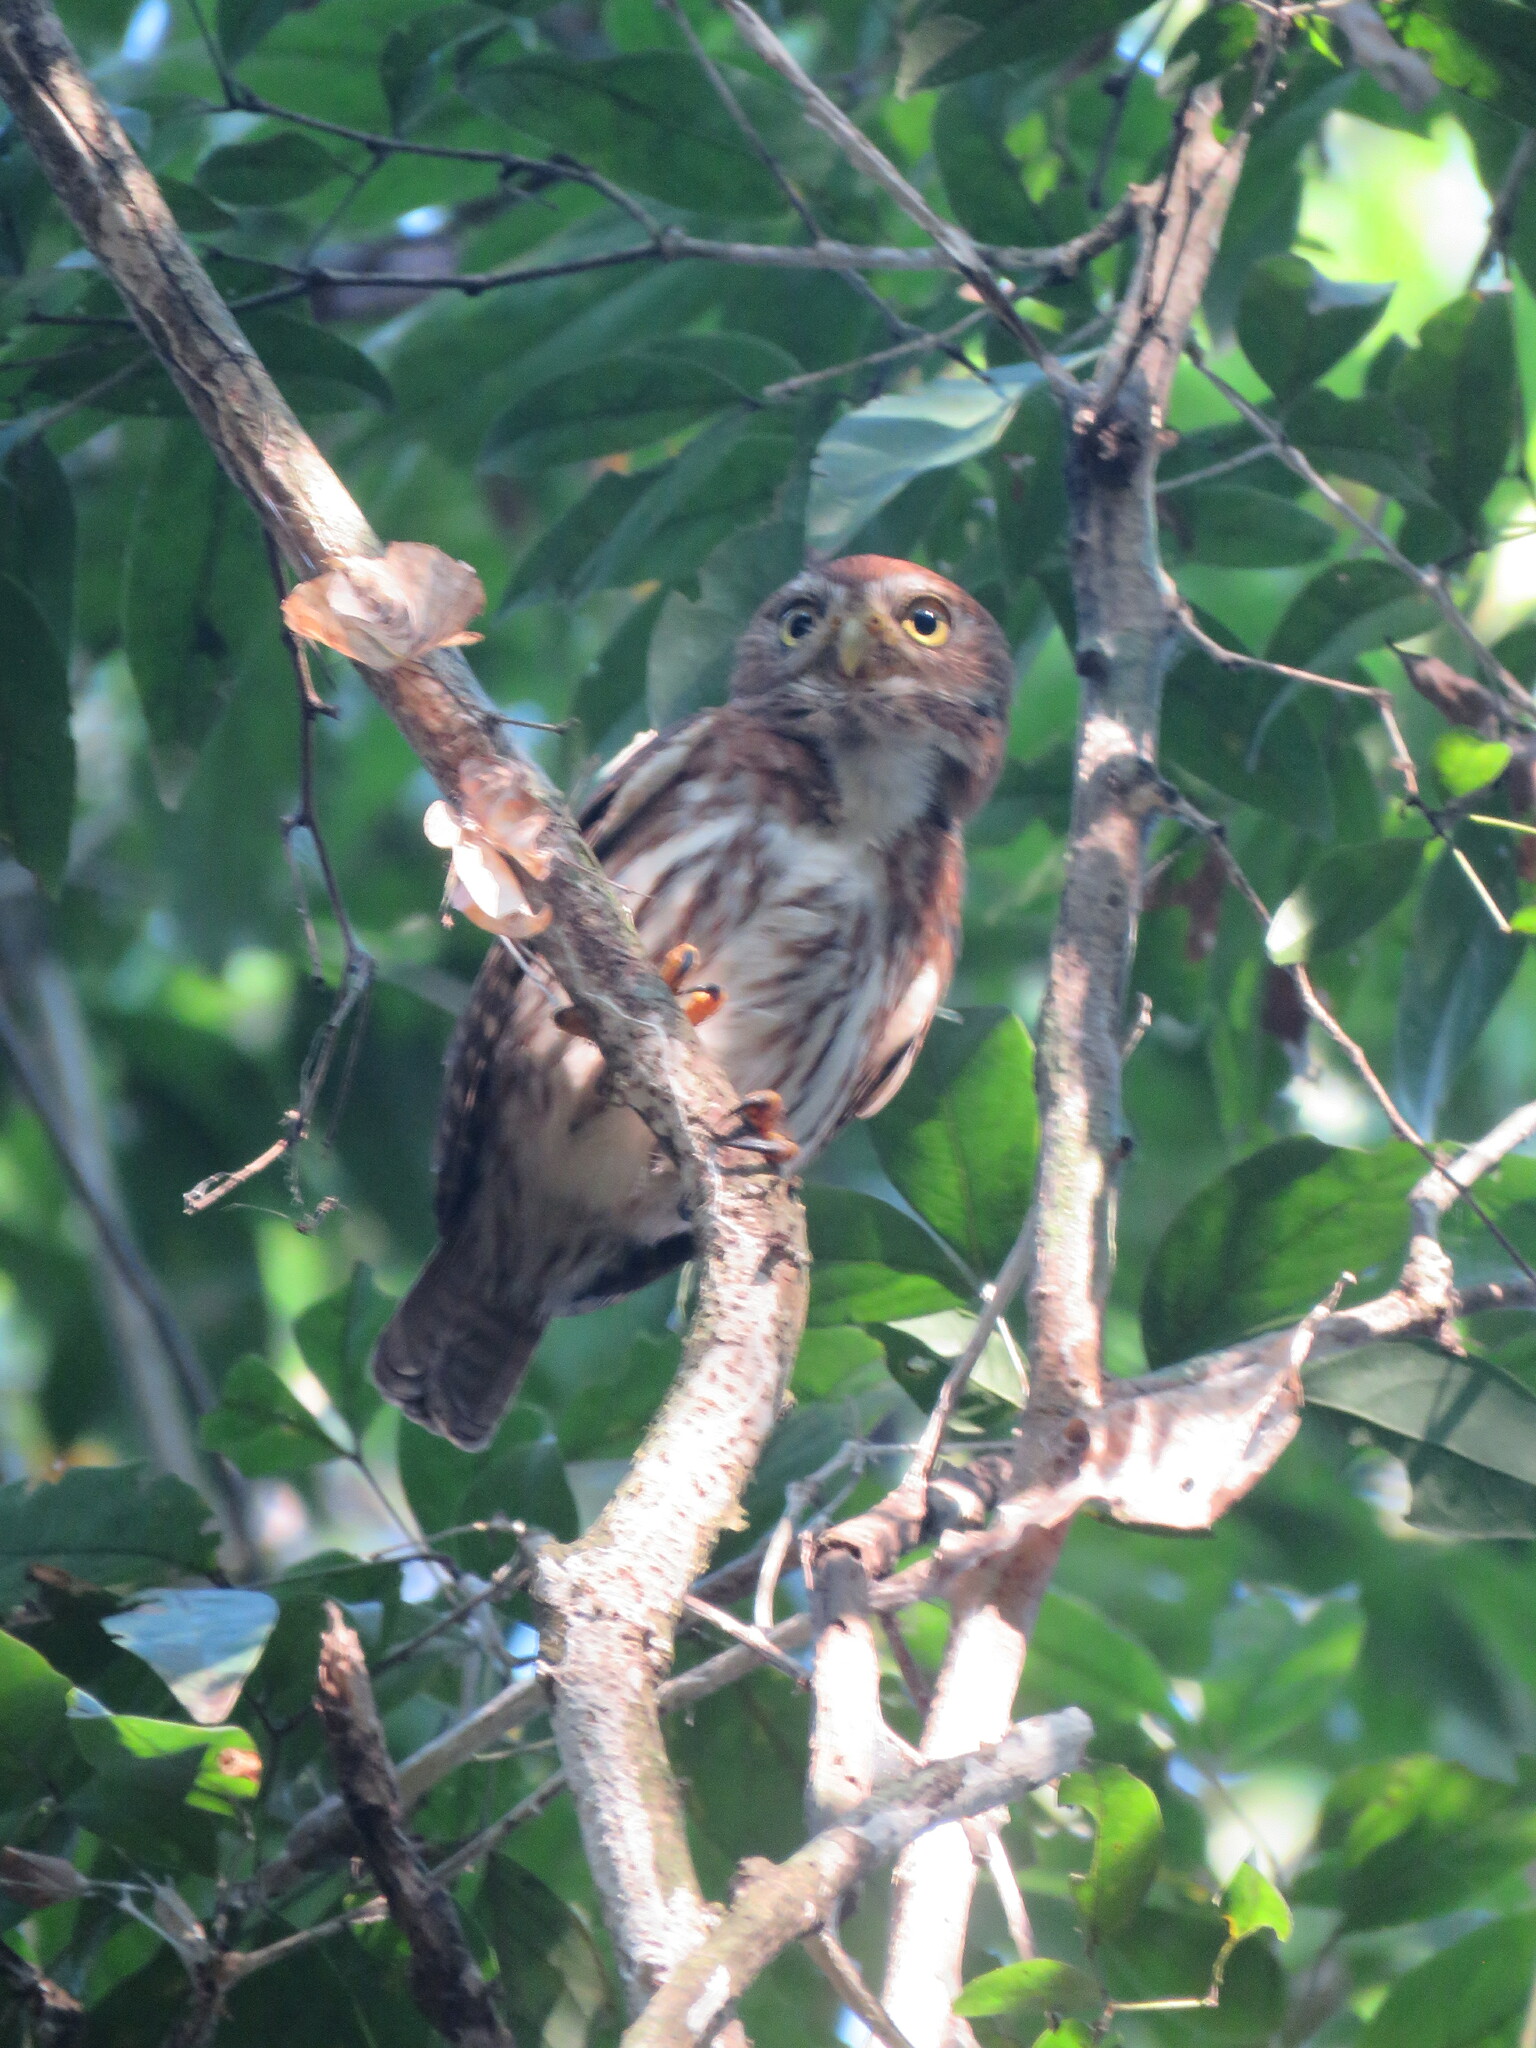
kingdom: Animalia
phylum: Chordata
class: Aves
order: Strigiformes
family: Strigidae
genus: Glaucidium
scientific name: Glaucidium brasilianum
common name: Ferruginous pygmy-owl
